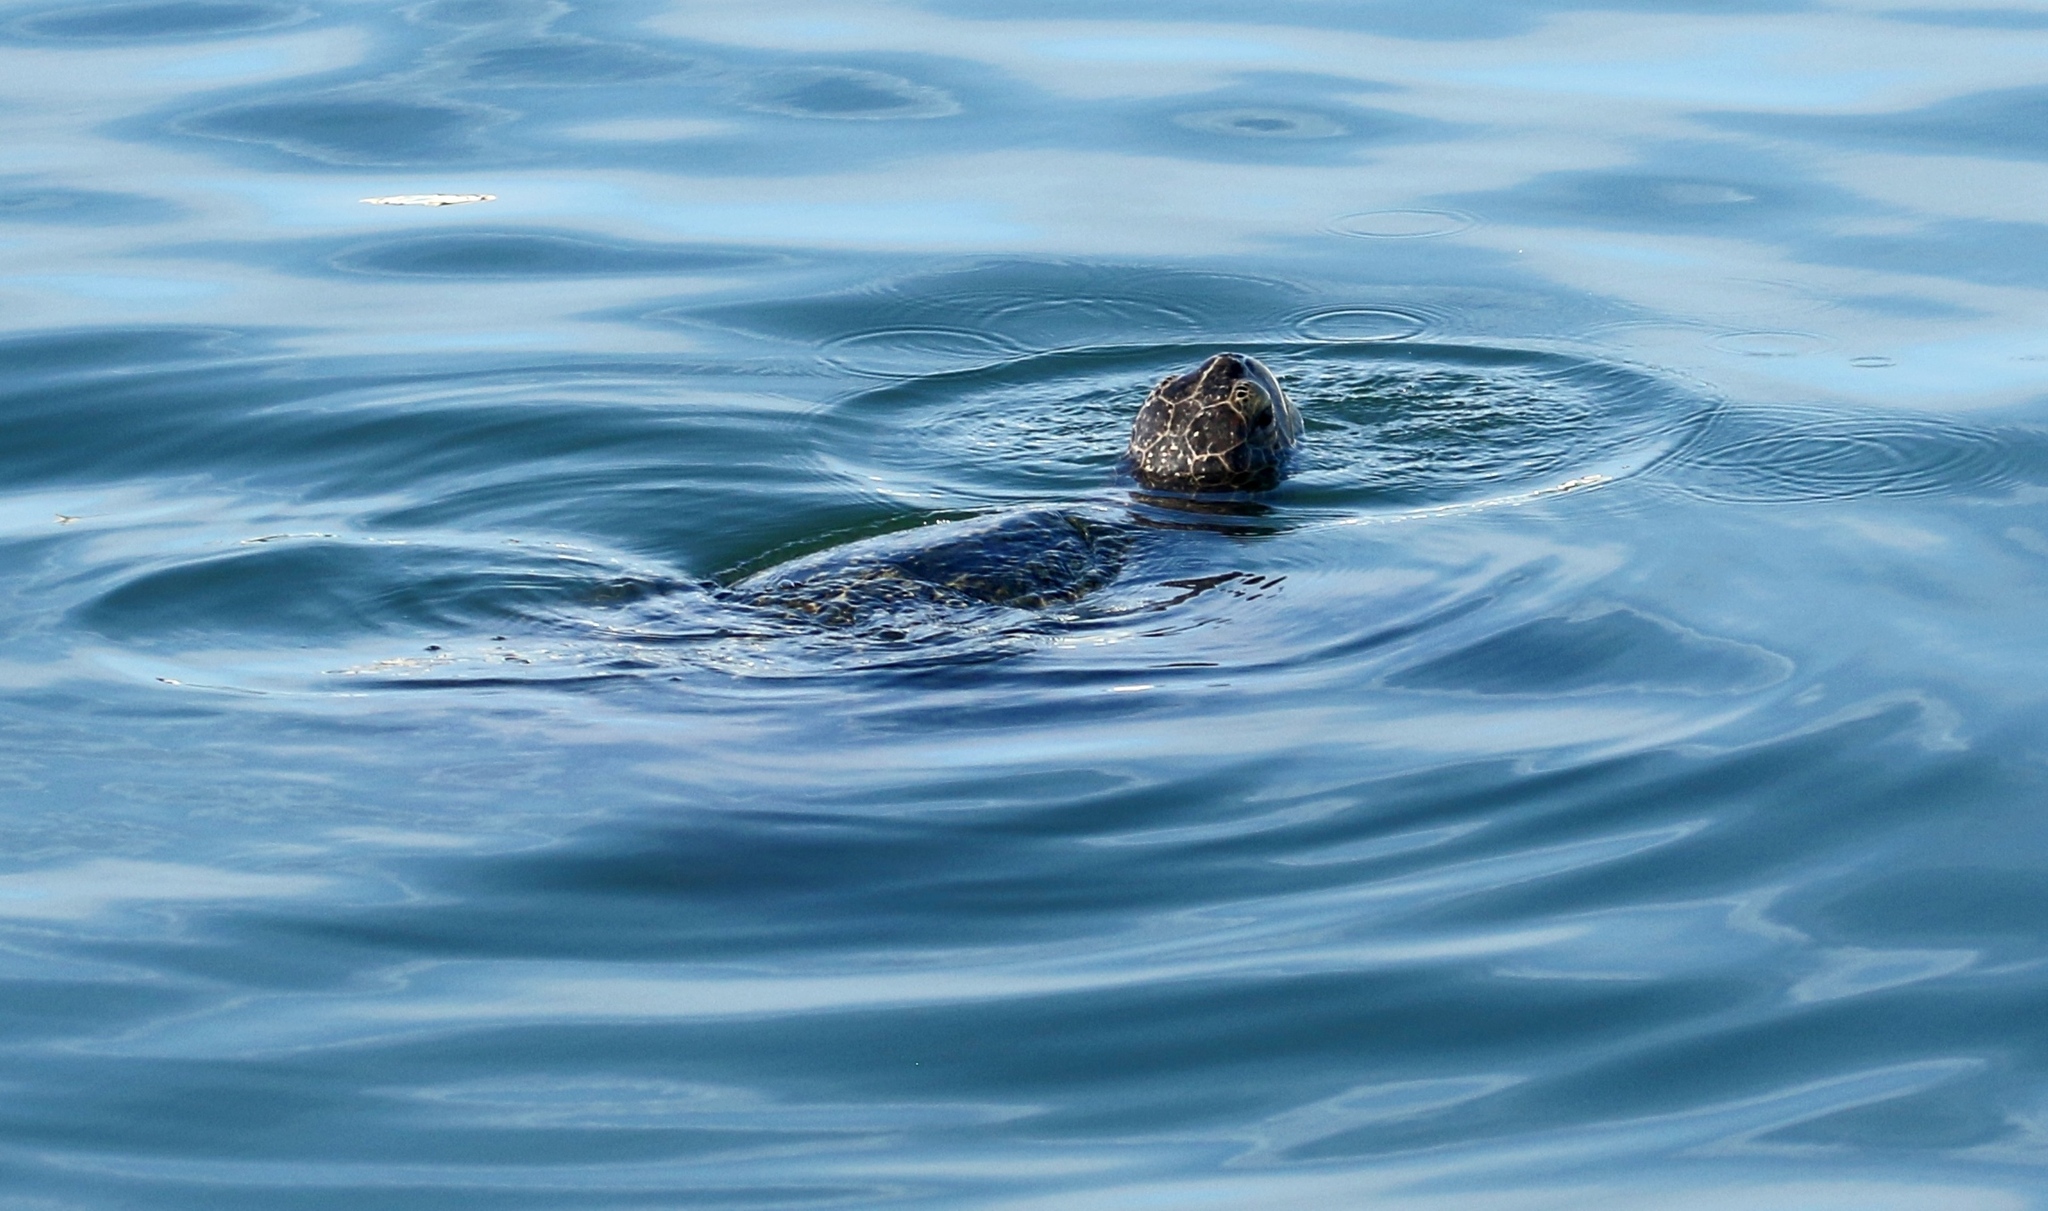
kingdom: Animalia
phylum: Chordata
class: Testudines
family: Cheloniidae
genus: Chelonia
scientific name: Chelonia mydas
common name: Green turtle
